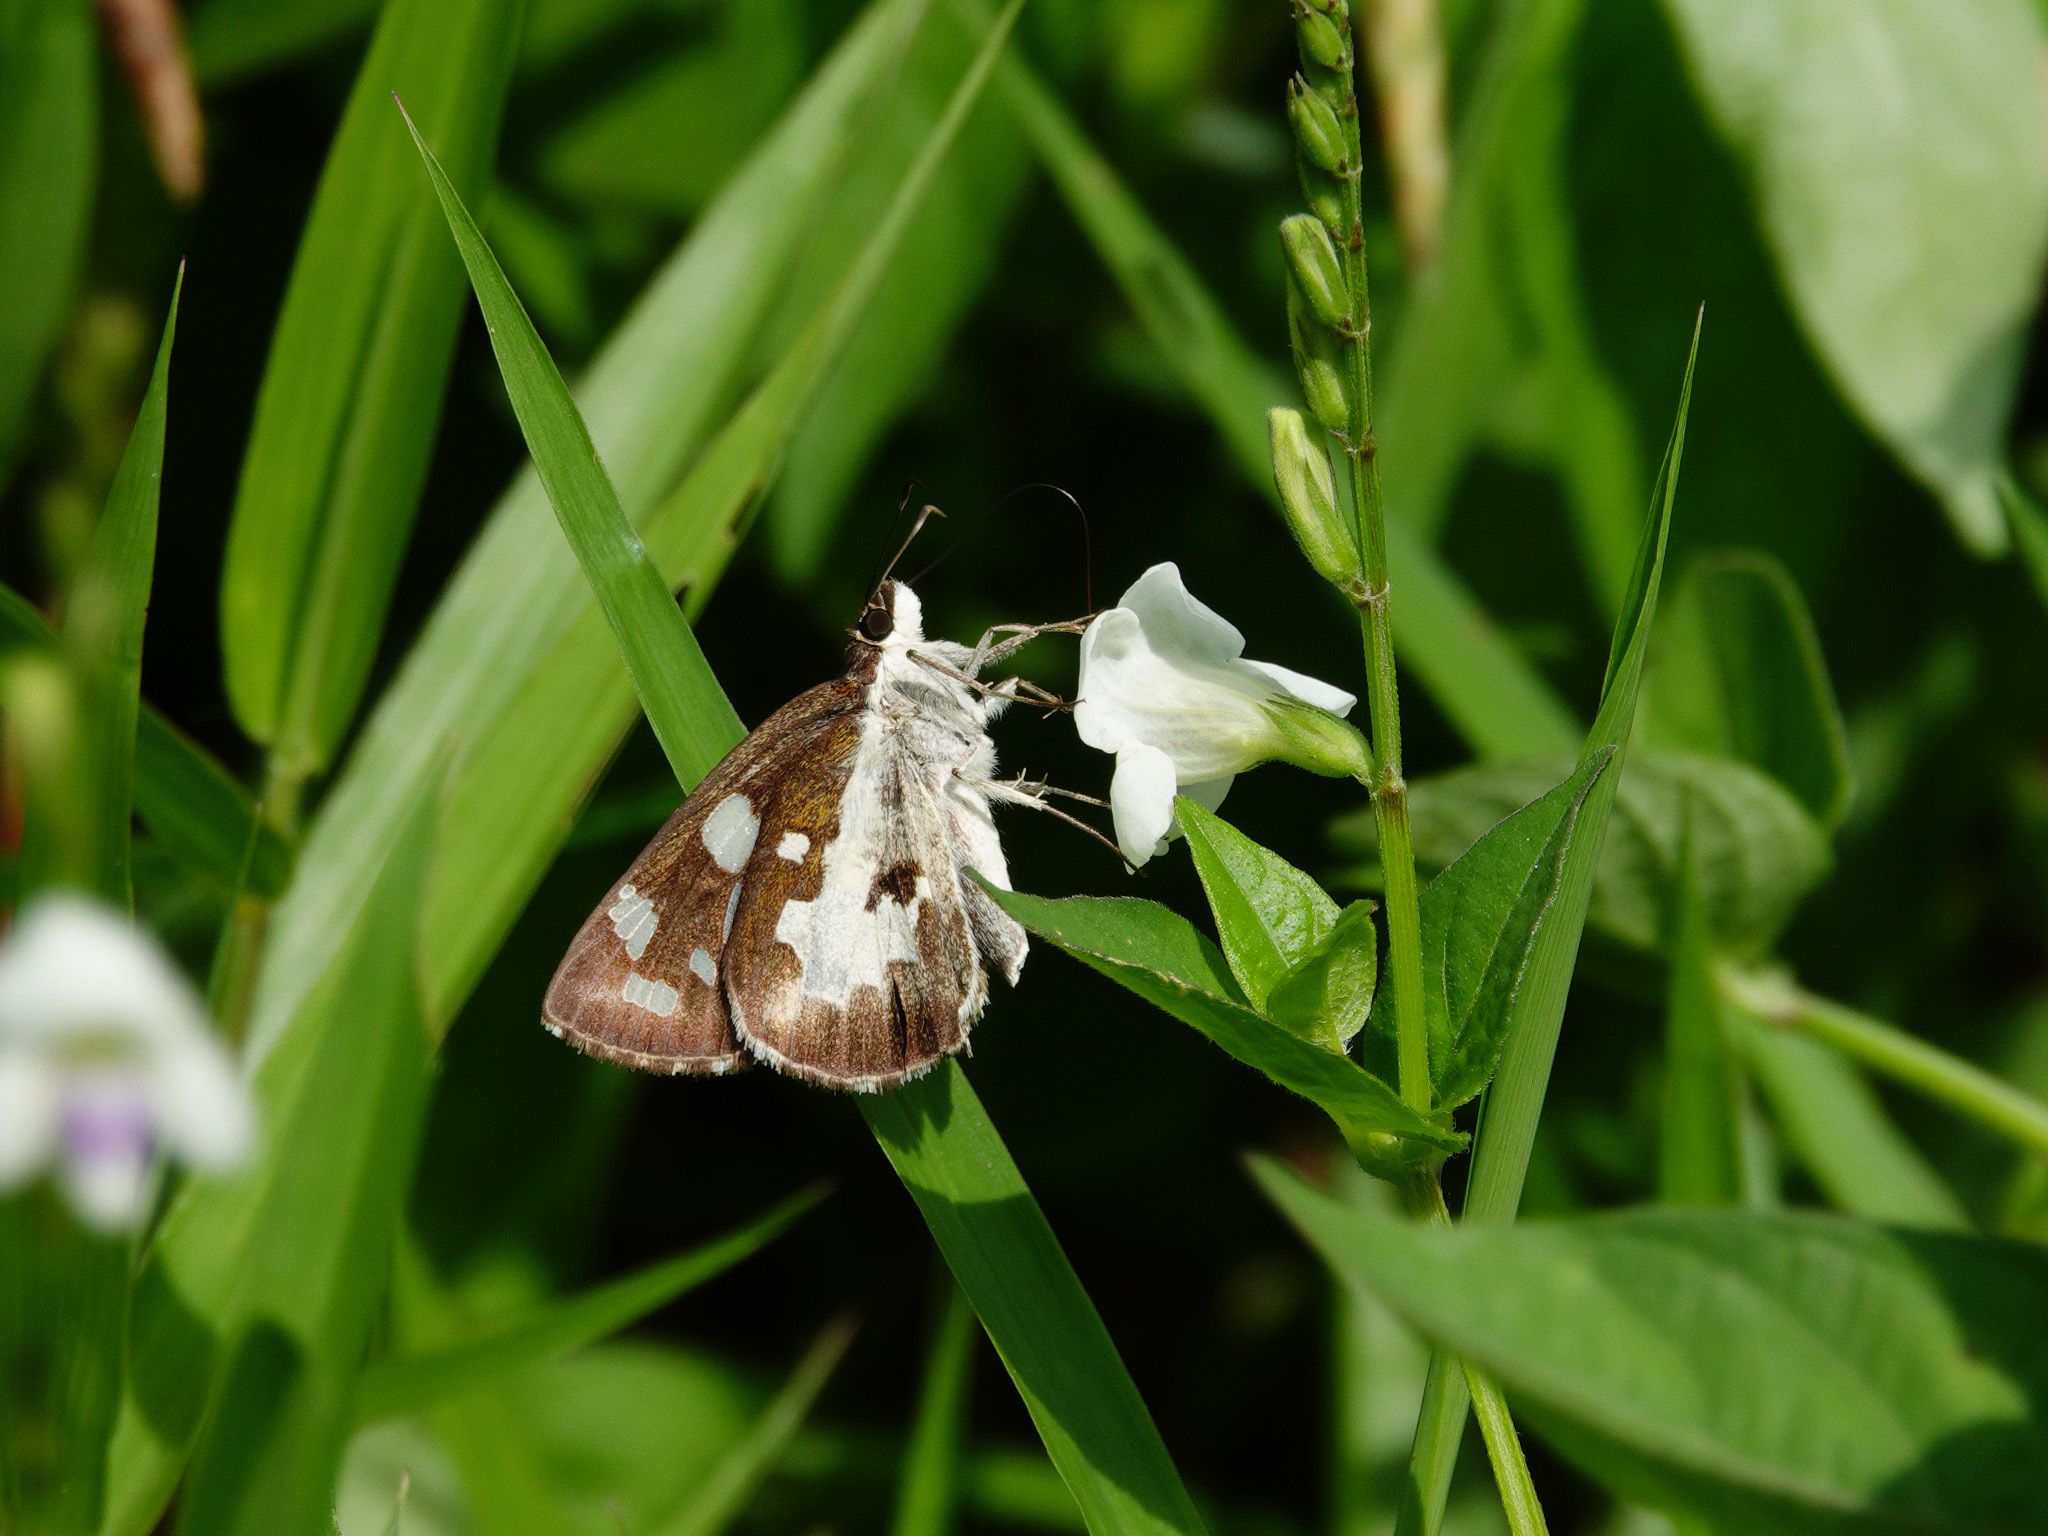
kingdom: Animalia
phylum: Arthropoda
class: Insecta
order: Lepidoptera
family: Hesperiidae
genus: Udaspes
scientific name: Udaspes folus
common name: Grass demon
